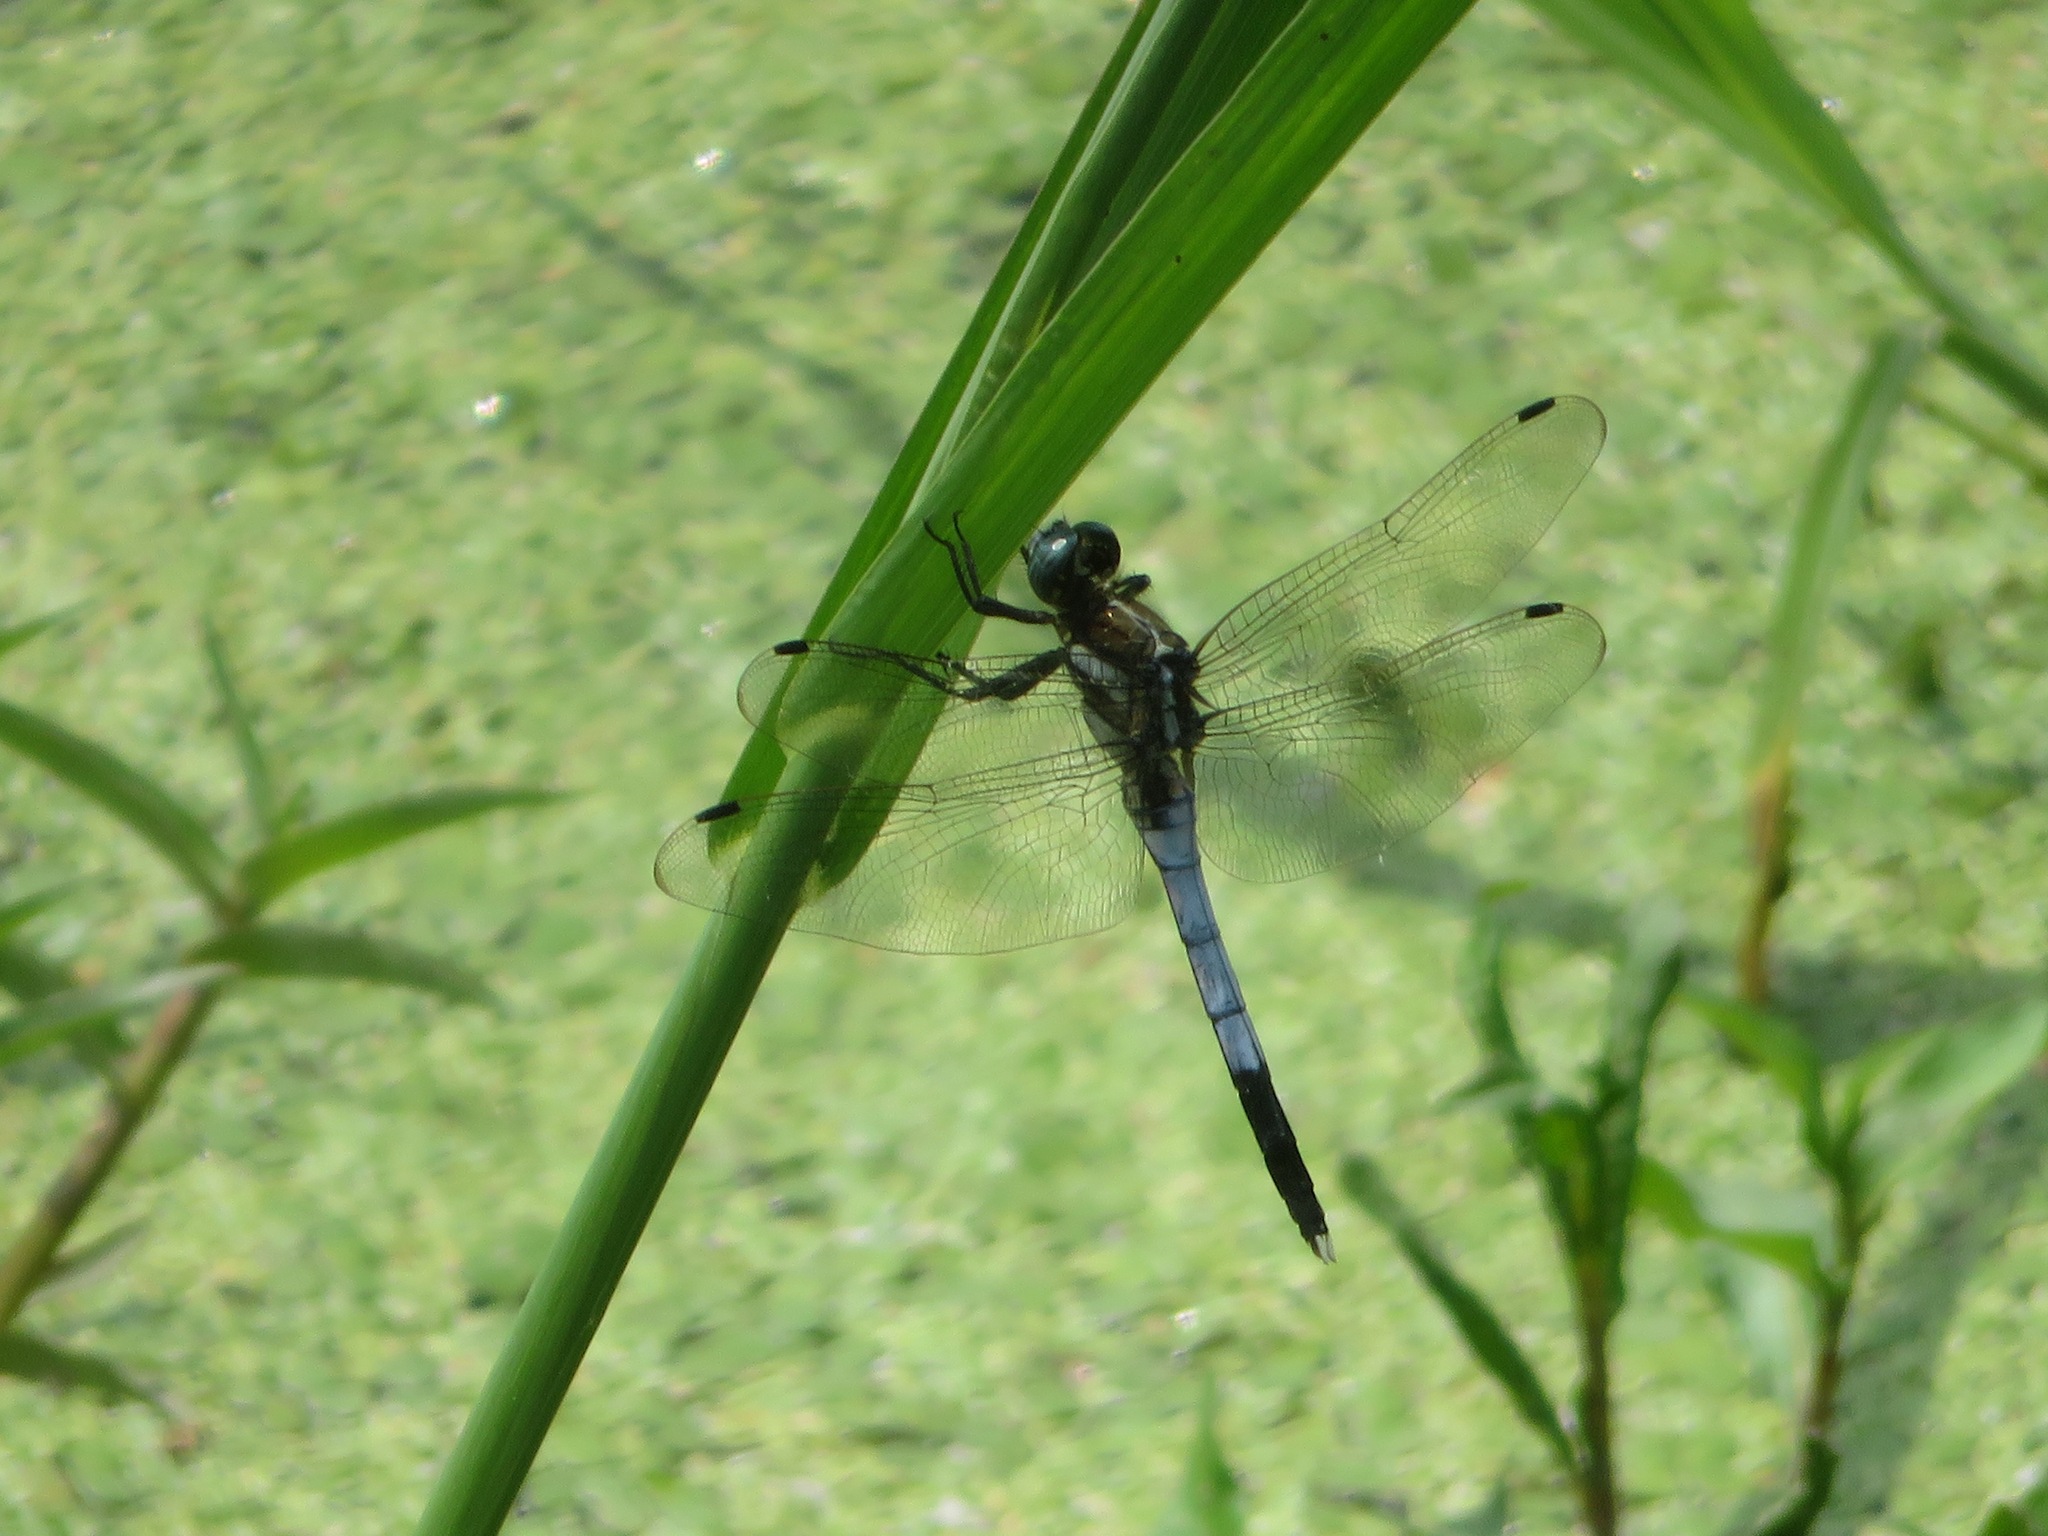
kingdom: Animalia
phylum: Arthropoda
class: Insecta
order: Odonata
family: Libellulidae
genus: Orthetrum
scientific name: Orthetrum albistylum
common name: White-tailed skimmer
